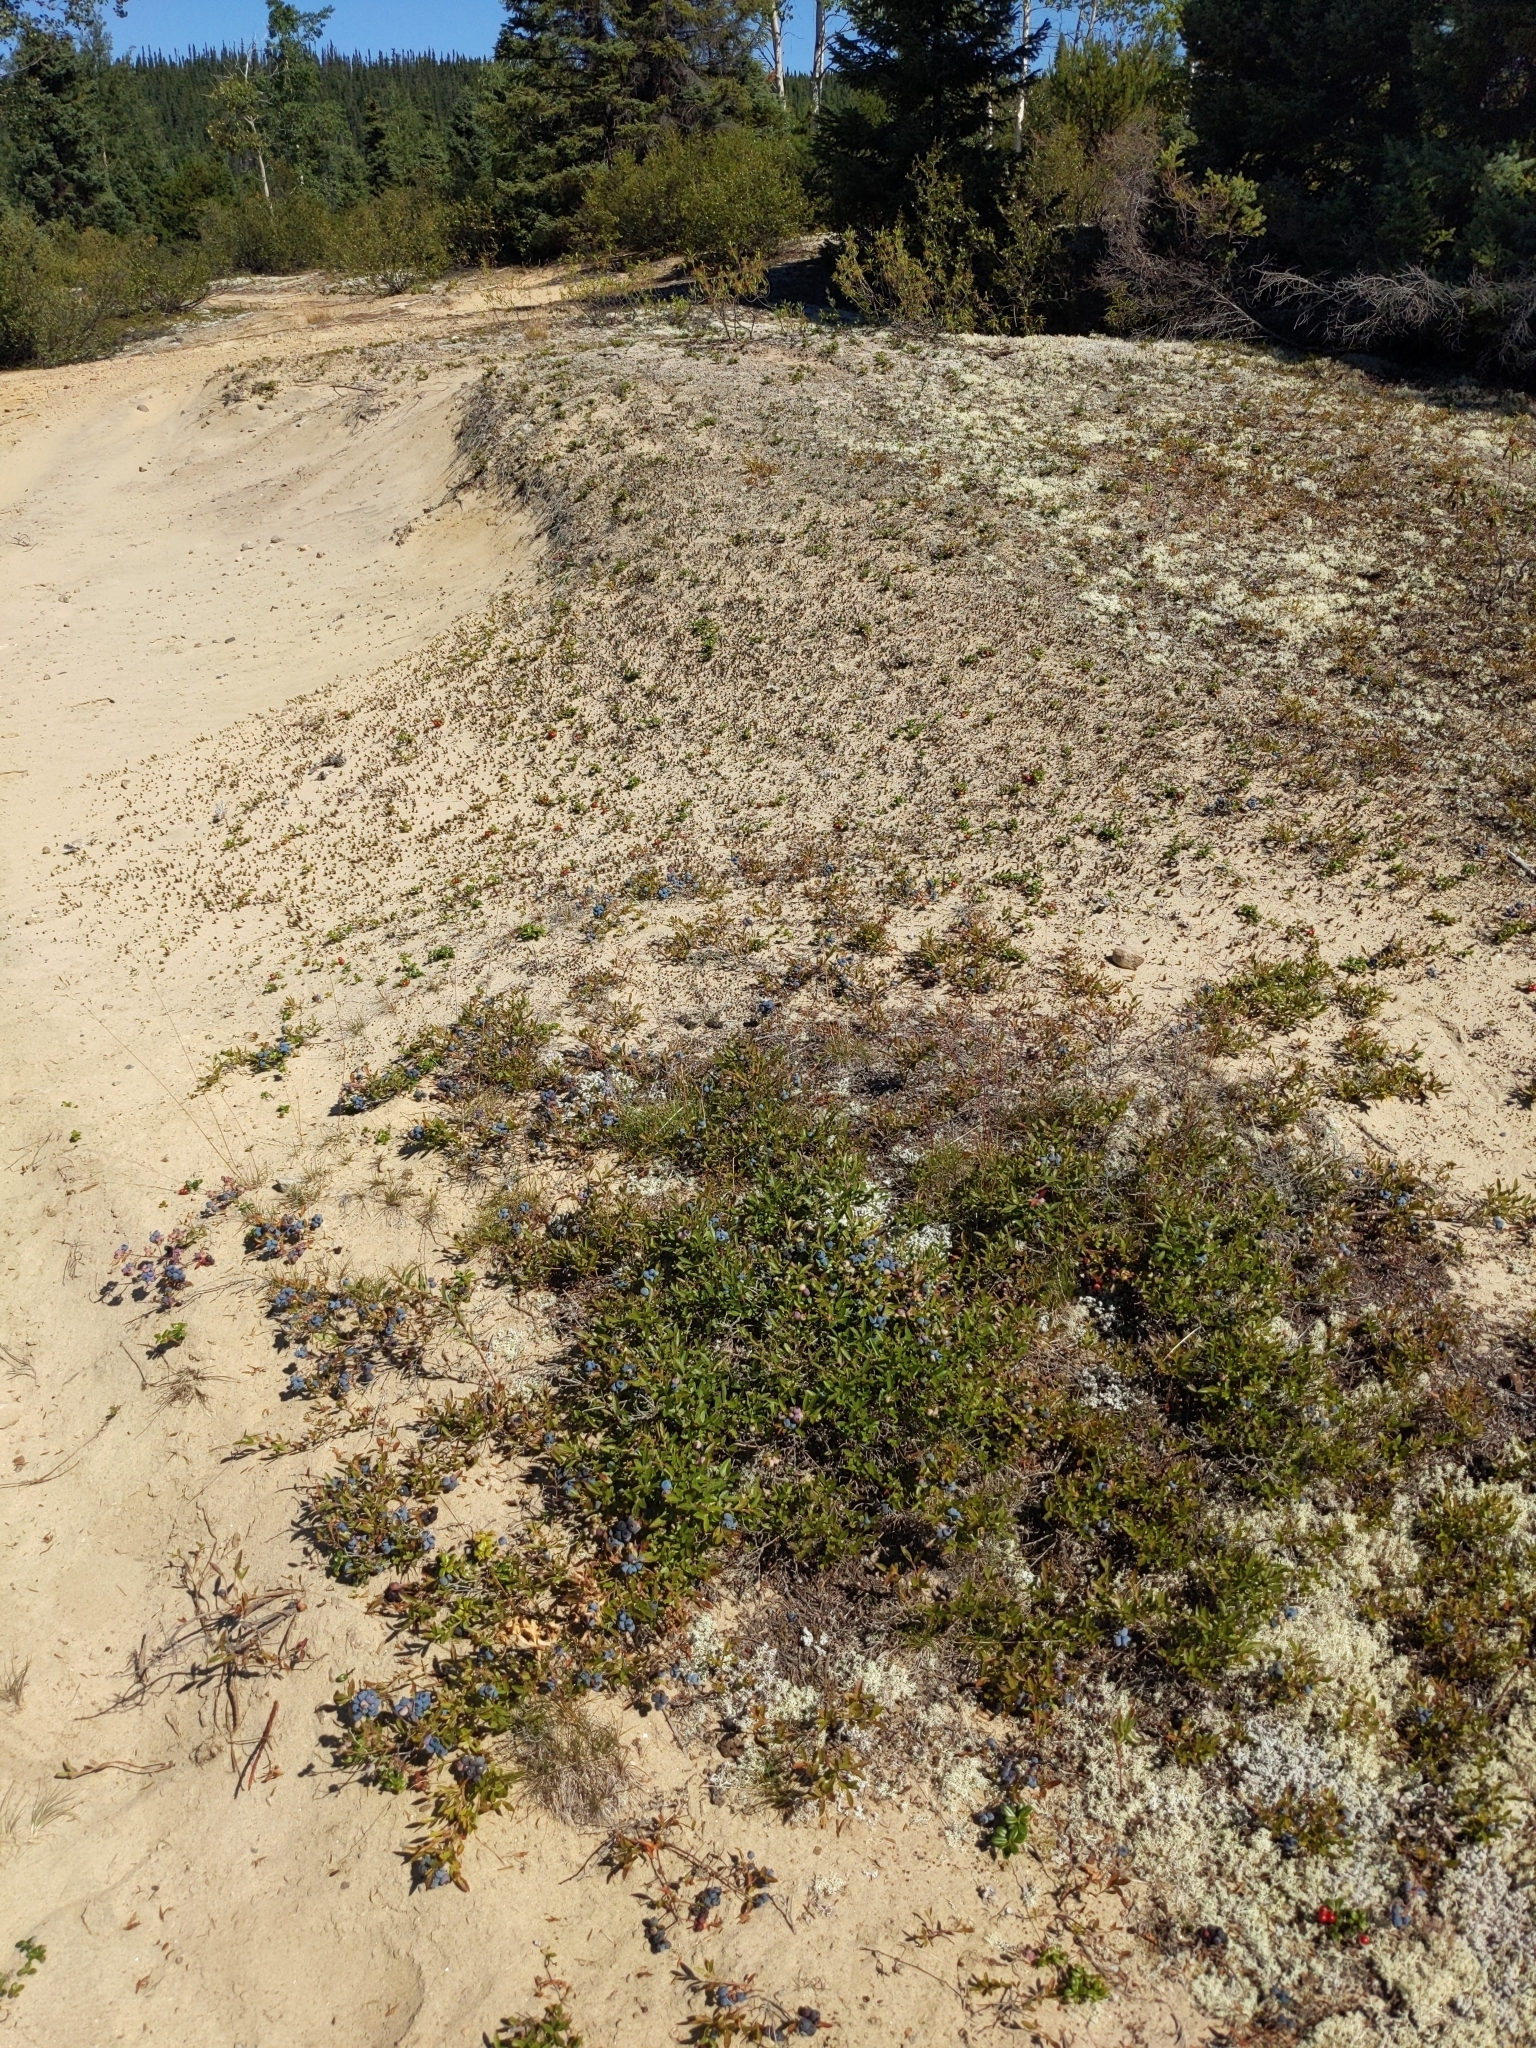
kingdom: Plantae
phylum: Tracheophyta
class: Magnoliopsida
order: Ericales
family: Ericaceae
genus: Vaccinium
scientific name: Vaccinium boreale
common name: Northern blueberry
